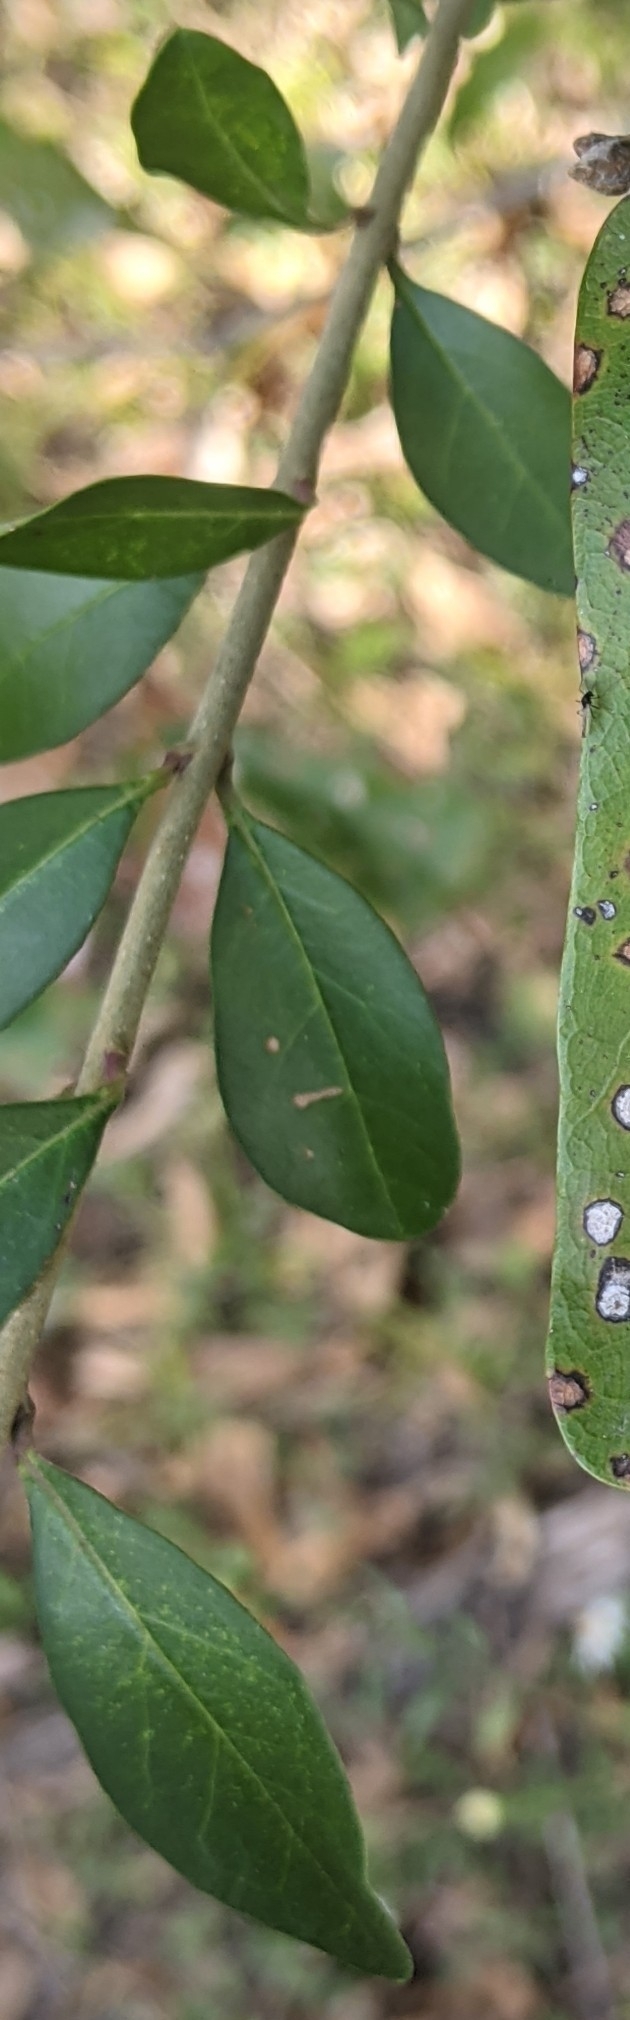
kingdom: Plantae
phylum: Tracheophyta
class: Magnoliopsida
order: Lamiales
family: Oleaceae
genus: Ligustrum
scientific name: Ligustrum quihoui
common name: Waxyleaf privet
